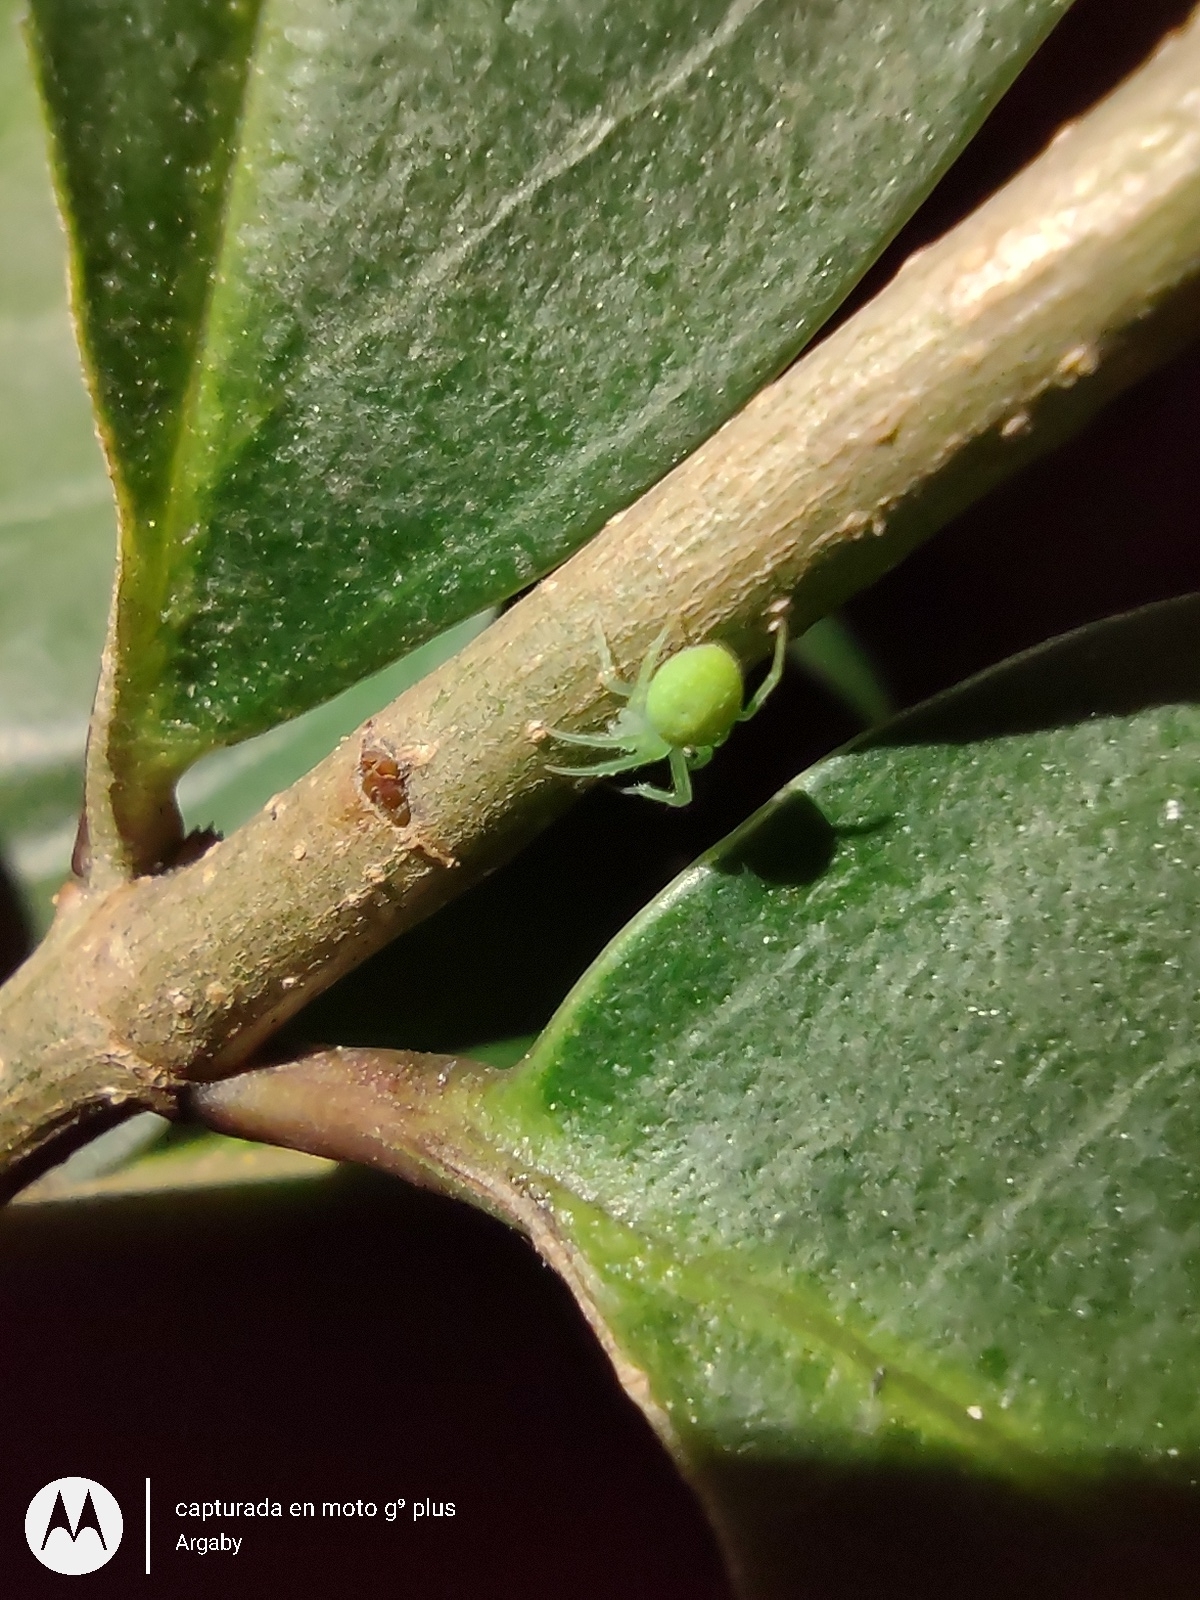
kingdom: Animalia
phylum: Arthropoda
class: Arachnida
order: Araneae
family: Araneidae
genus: Araneus
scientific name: Araneus uniformis
